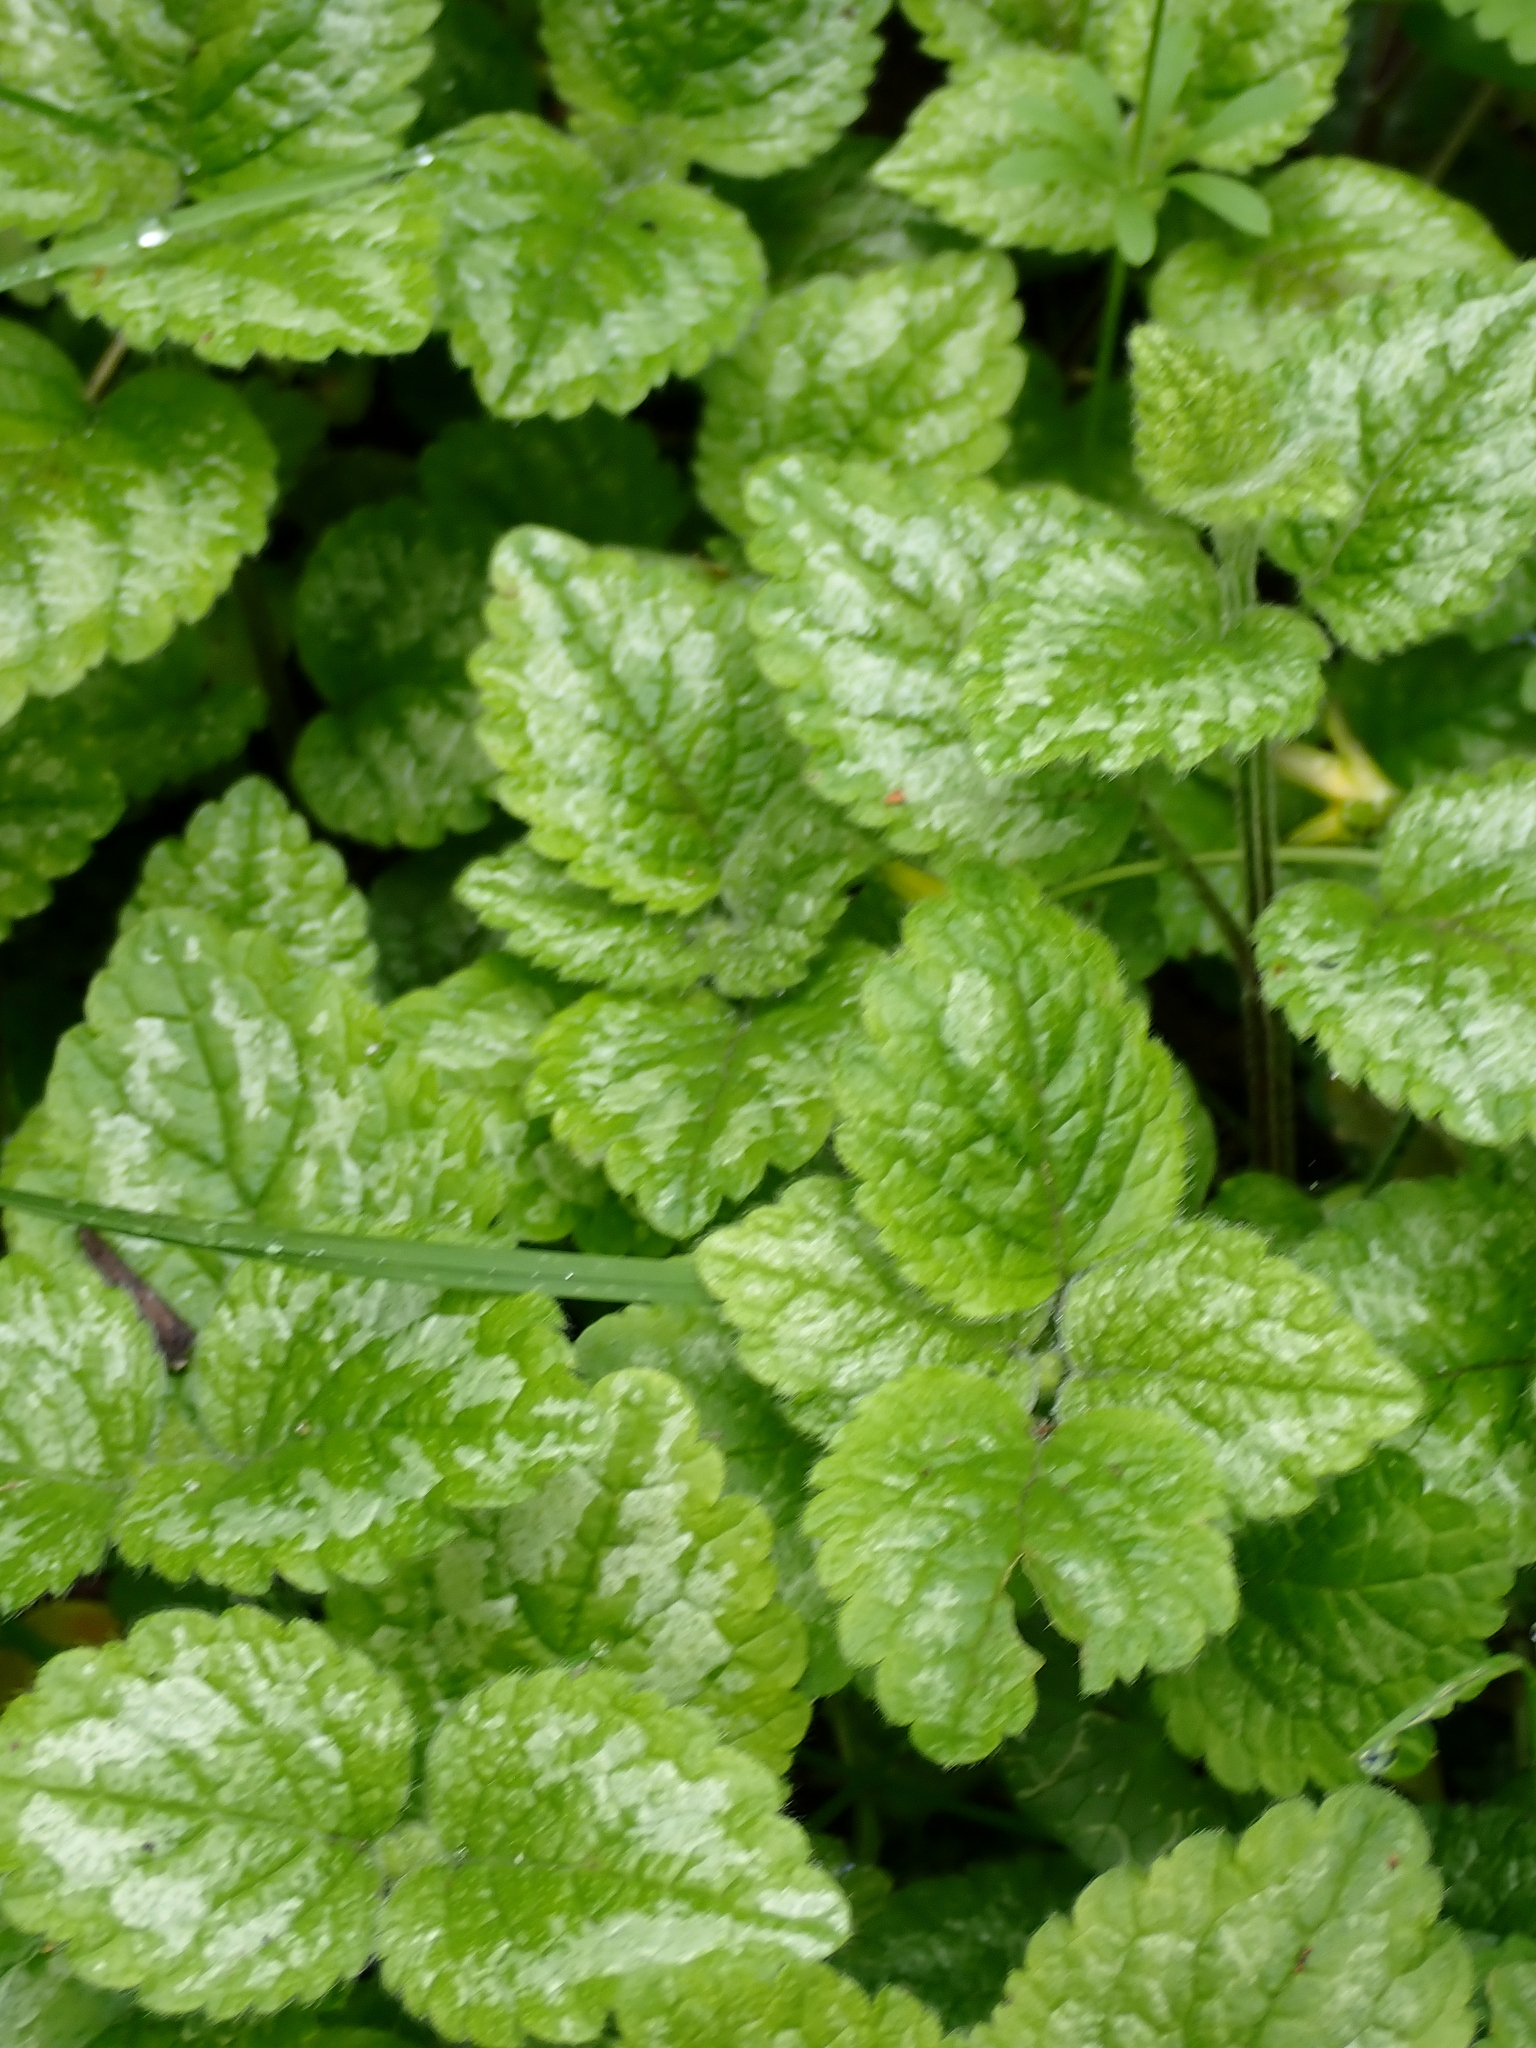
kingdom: Plantae
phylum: Tracheophyta
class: Magnoliopsida
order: Lamiales
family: Lamiaceae
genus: Lamium
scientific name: Lamium galeobdolon
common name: Yellow archangel
